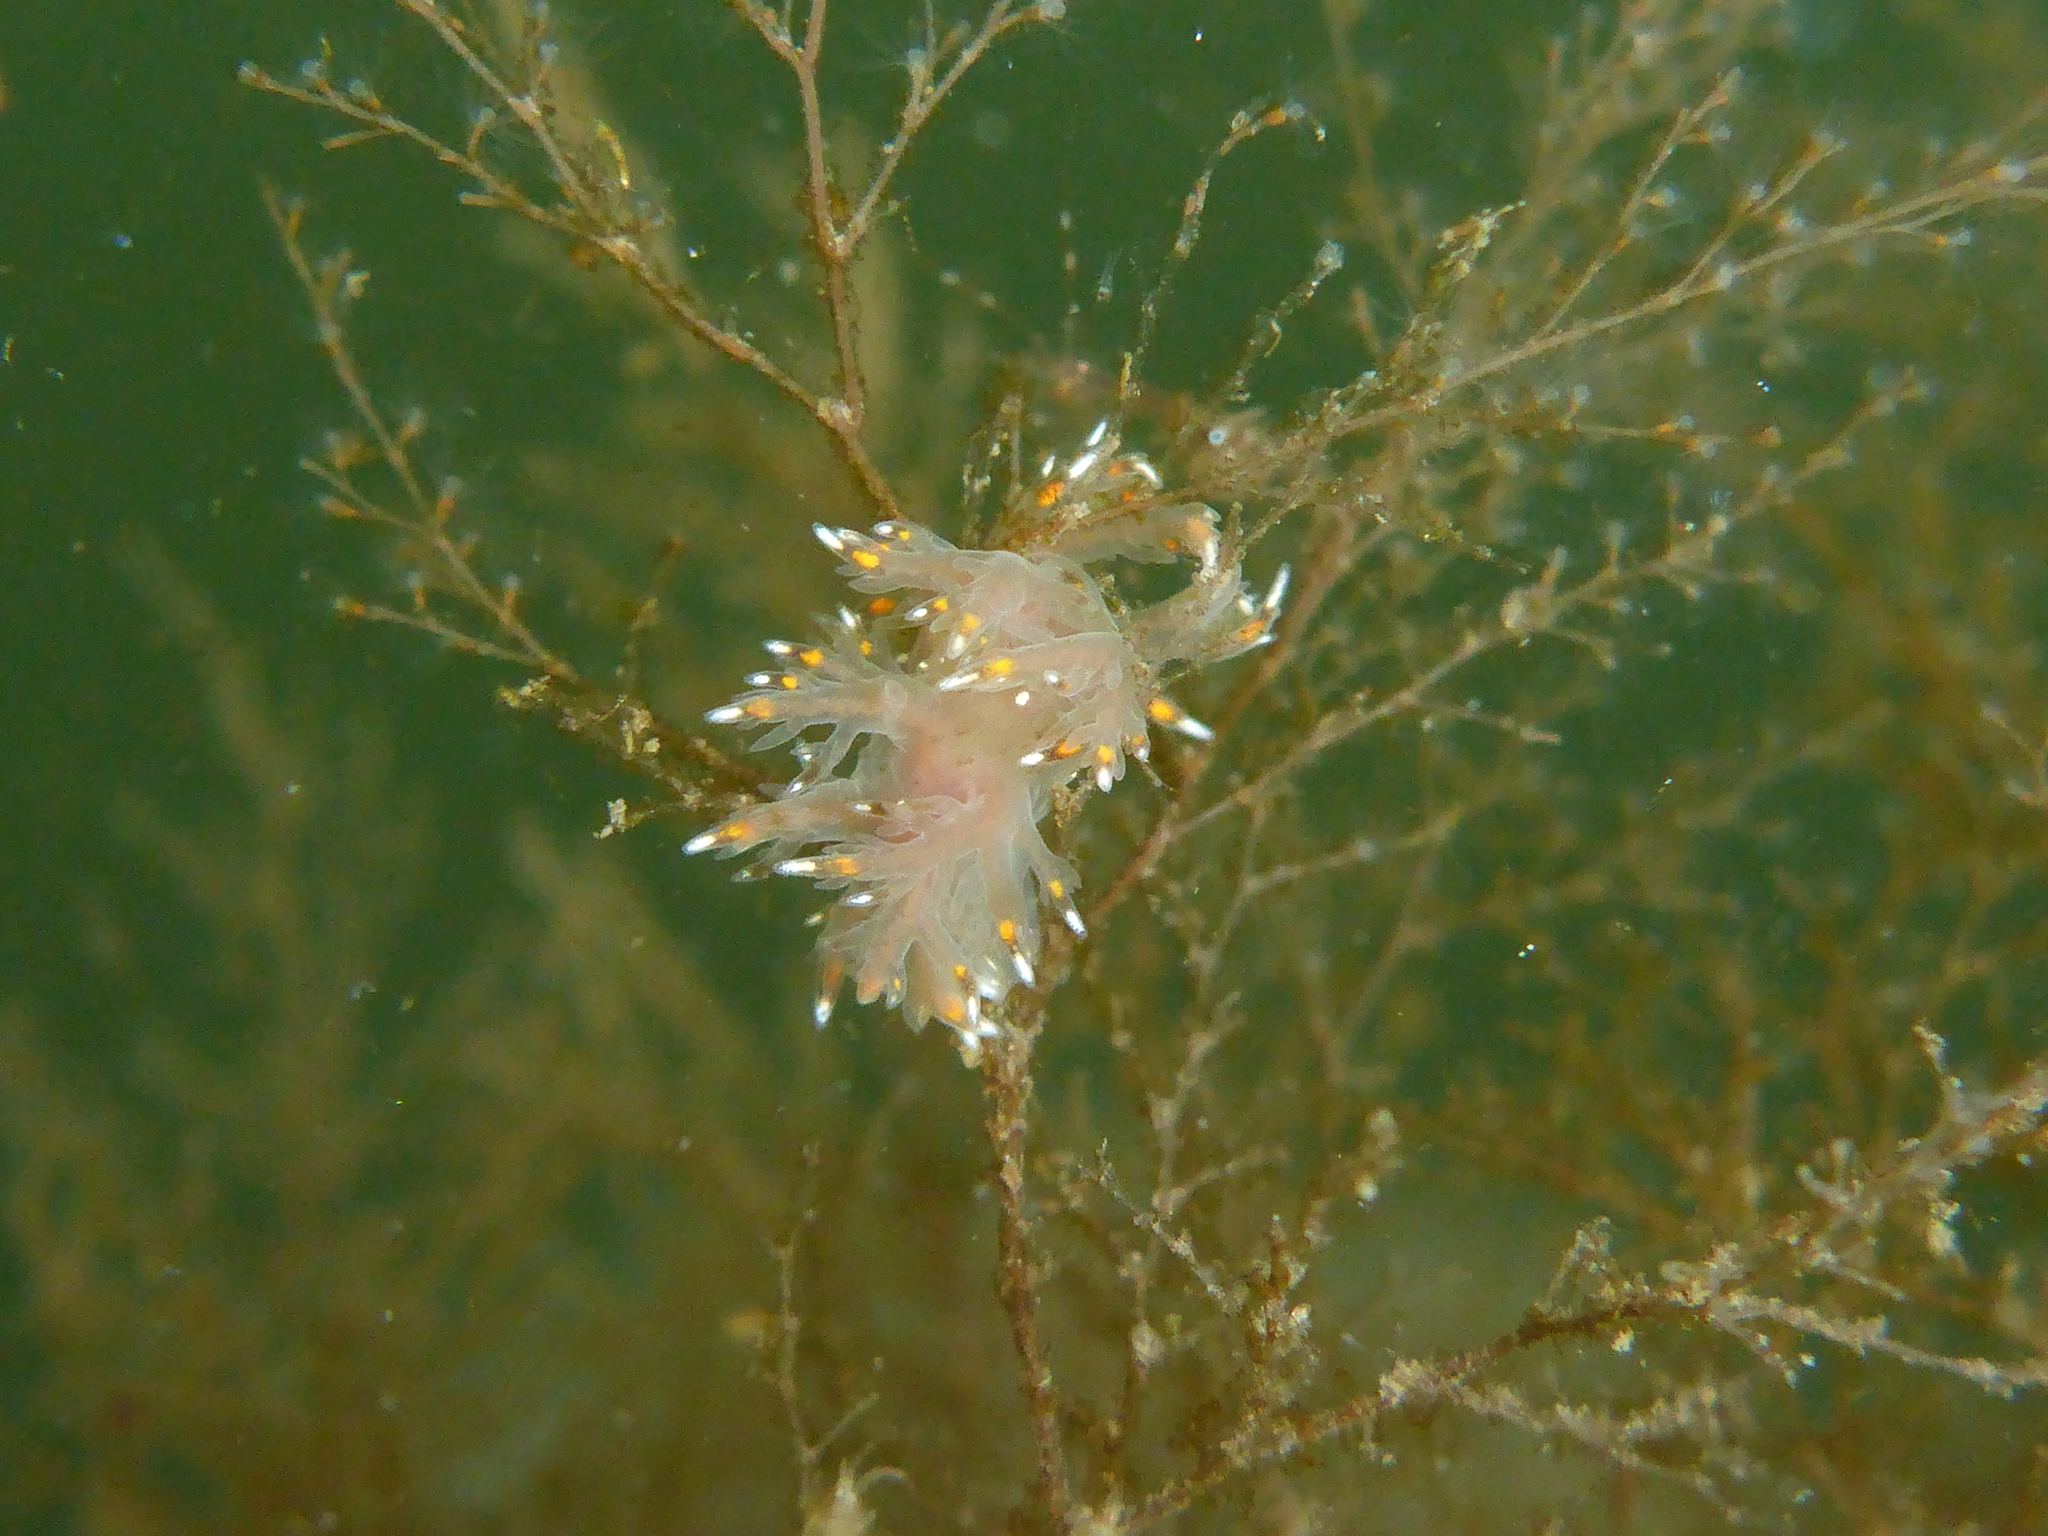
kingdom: Animalia
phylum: Mollusca
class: Gastropoda
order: Nudibranchia
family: Dendronotidae
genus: Dendronotus
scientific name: Dendronotus iris
